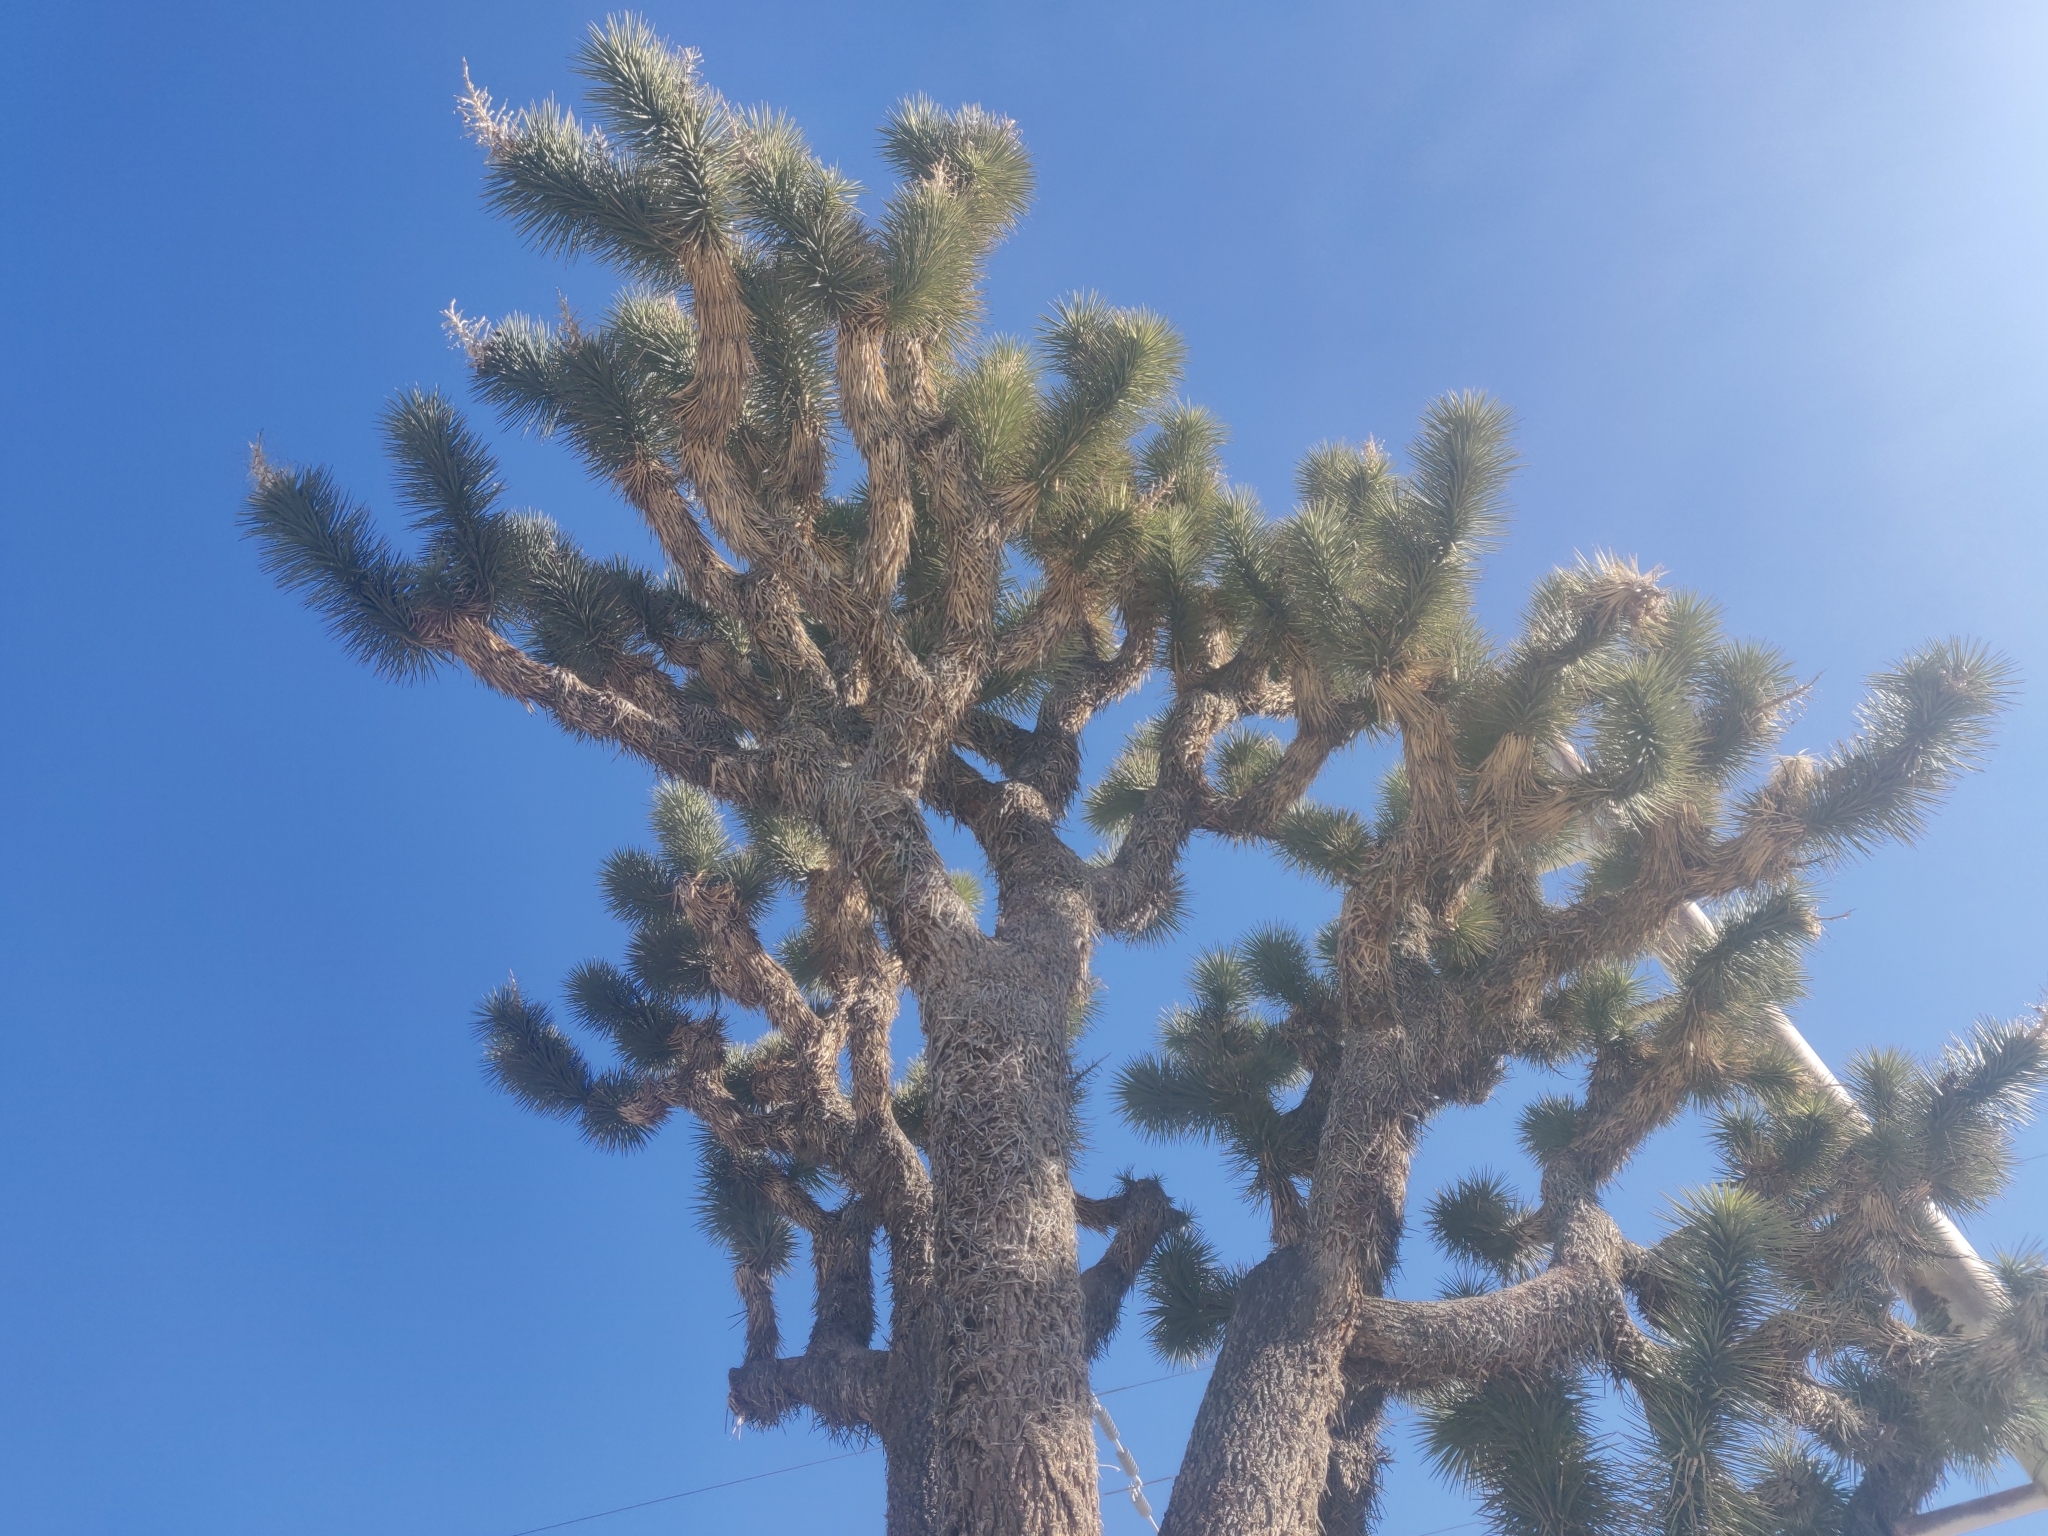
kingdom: Plantae
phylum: Tracheophyta
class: Liliopsida
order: Asparagales
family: Asparagaceae
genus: Yucca
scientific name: Yucca brevifolia
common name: Joshua tree
